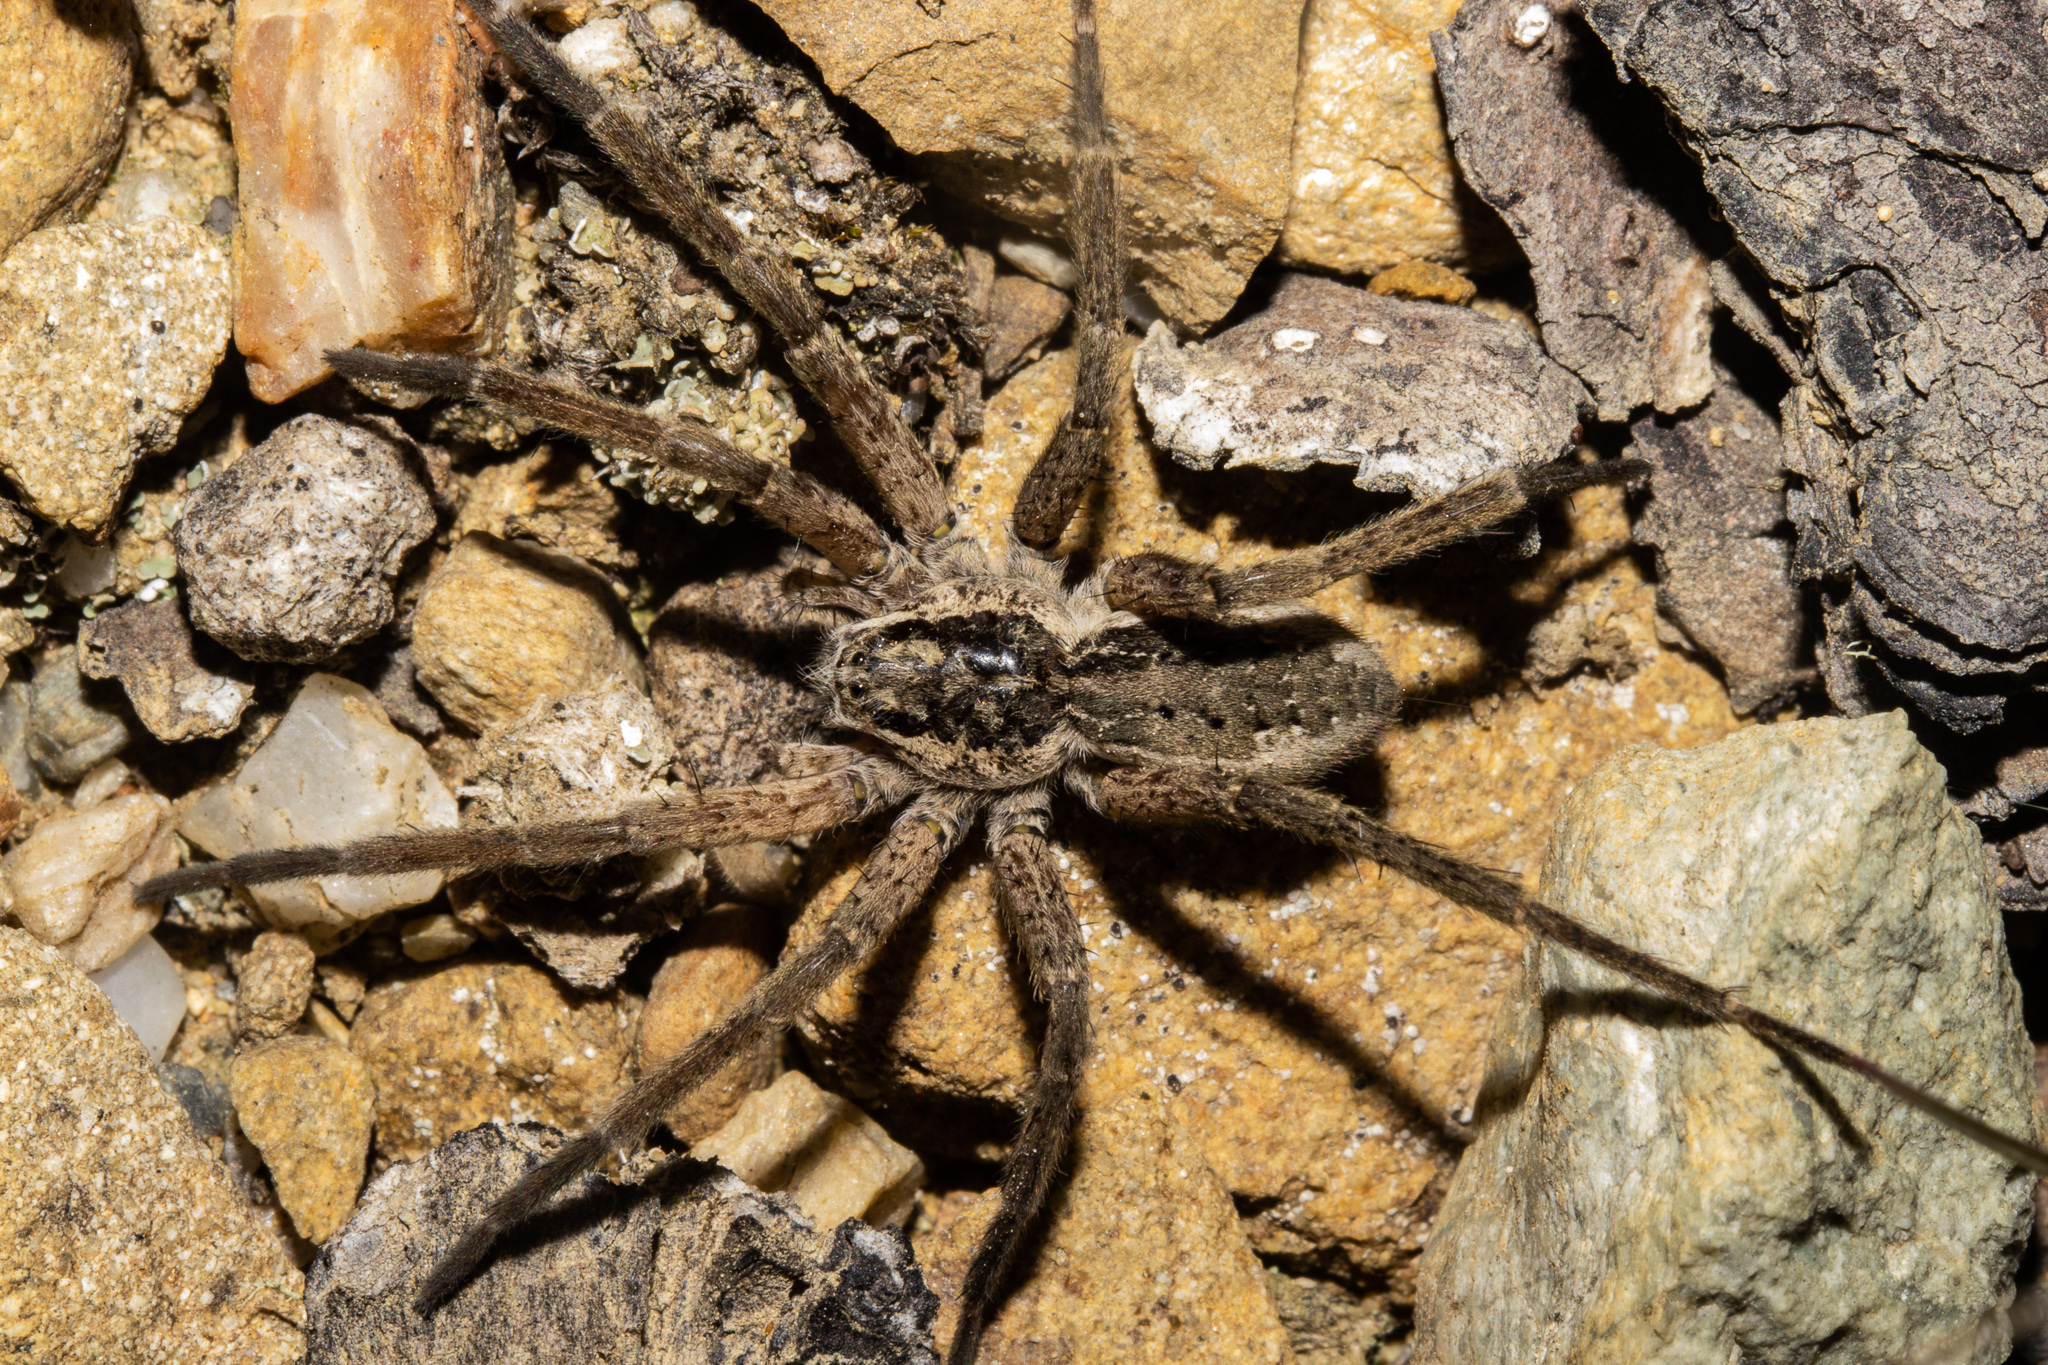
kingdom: Animalia
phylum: Arthropoda
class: Arachnida
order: Araneae
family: Pisauridae
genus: Dolomedes
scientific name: Dolomedes dondalei
